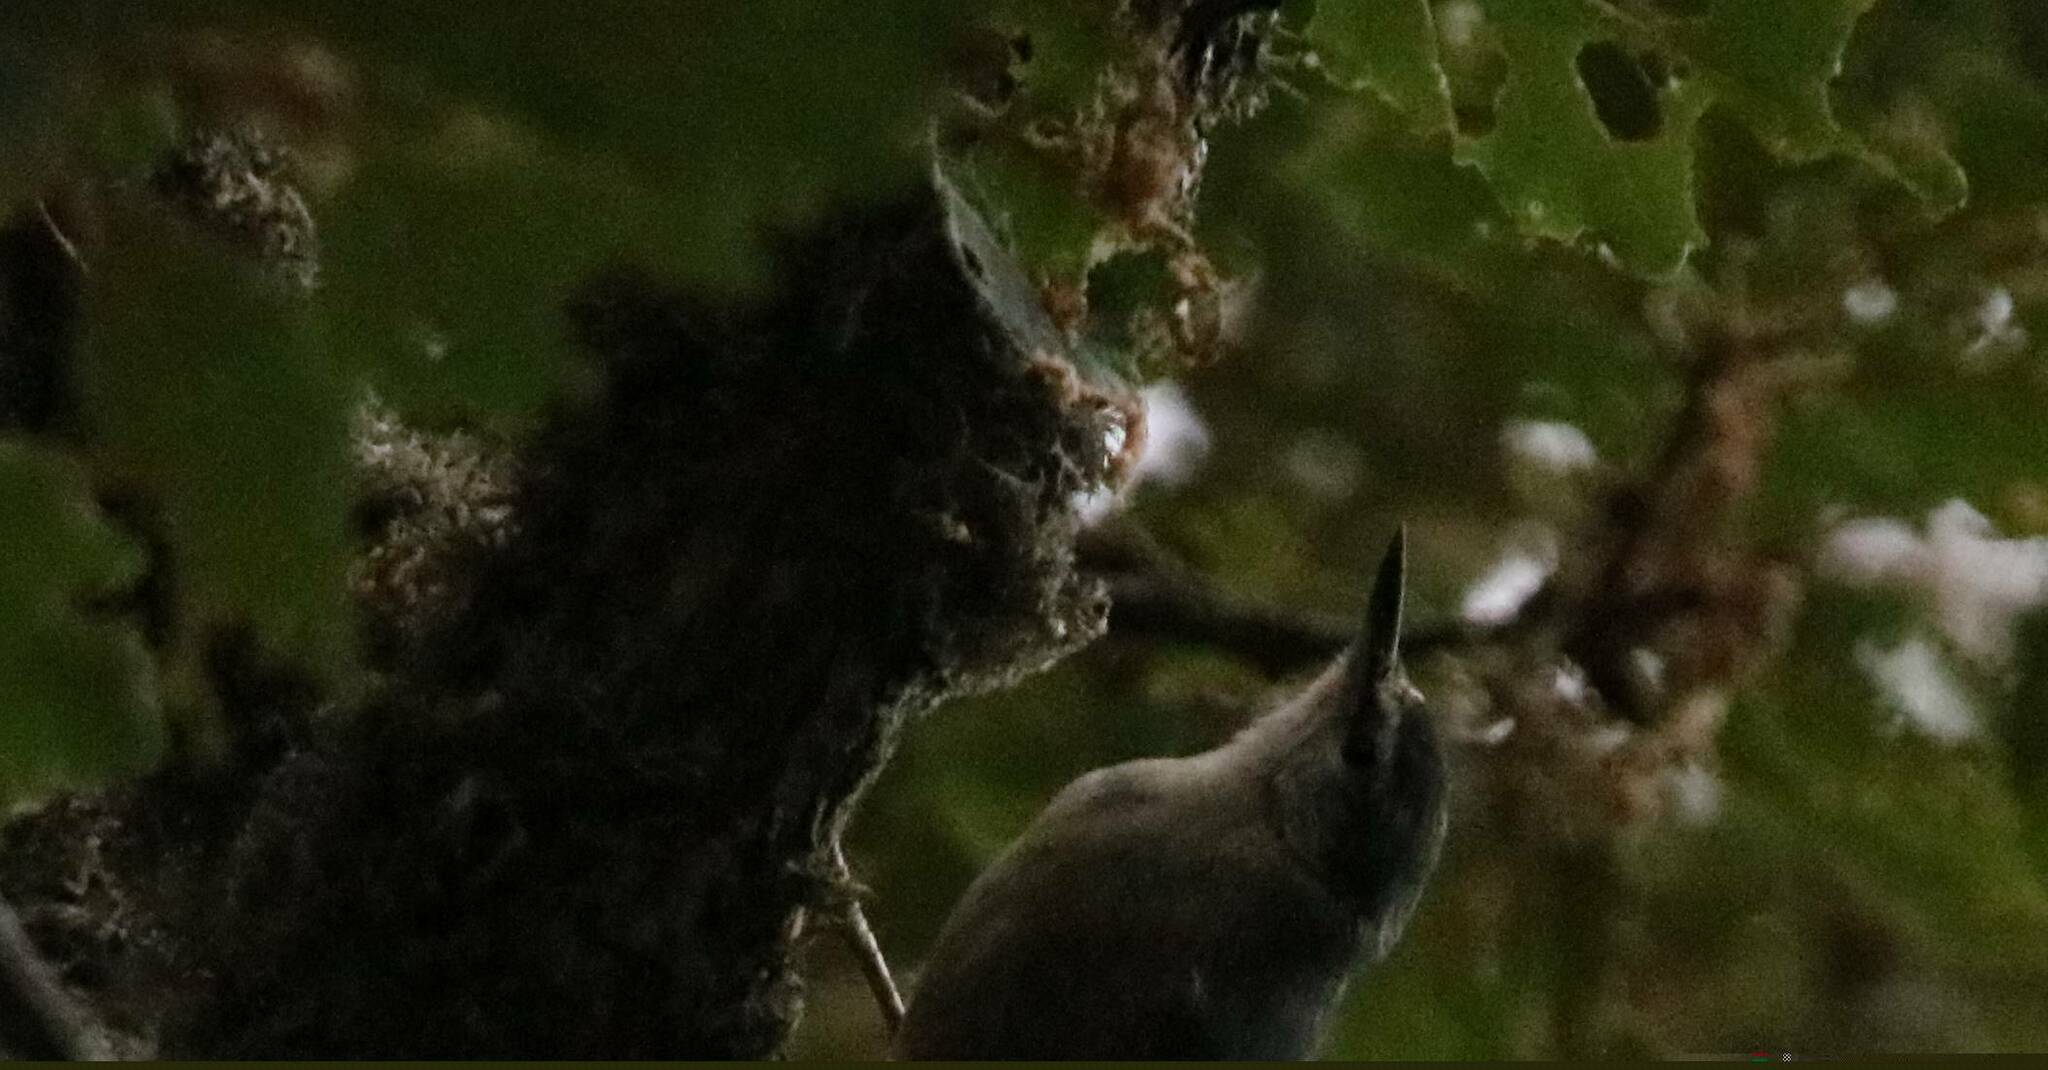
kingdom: Animalia
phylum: Chordata
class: Aves
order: Passeriformes
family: Sittidae
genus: Sitta
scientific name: Sitta ledanti
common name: Algerian nuthatch
